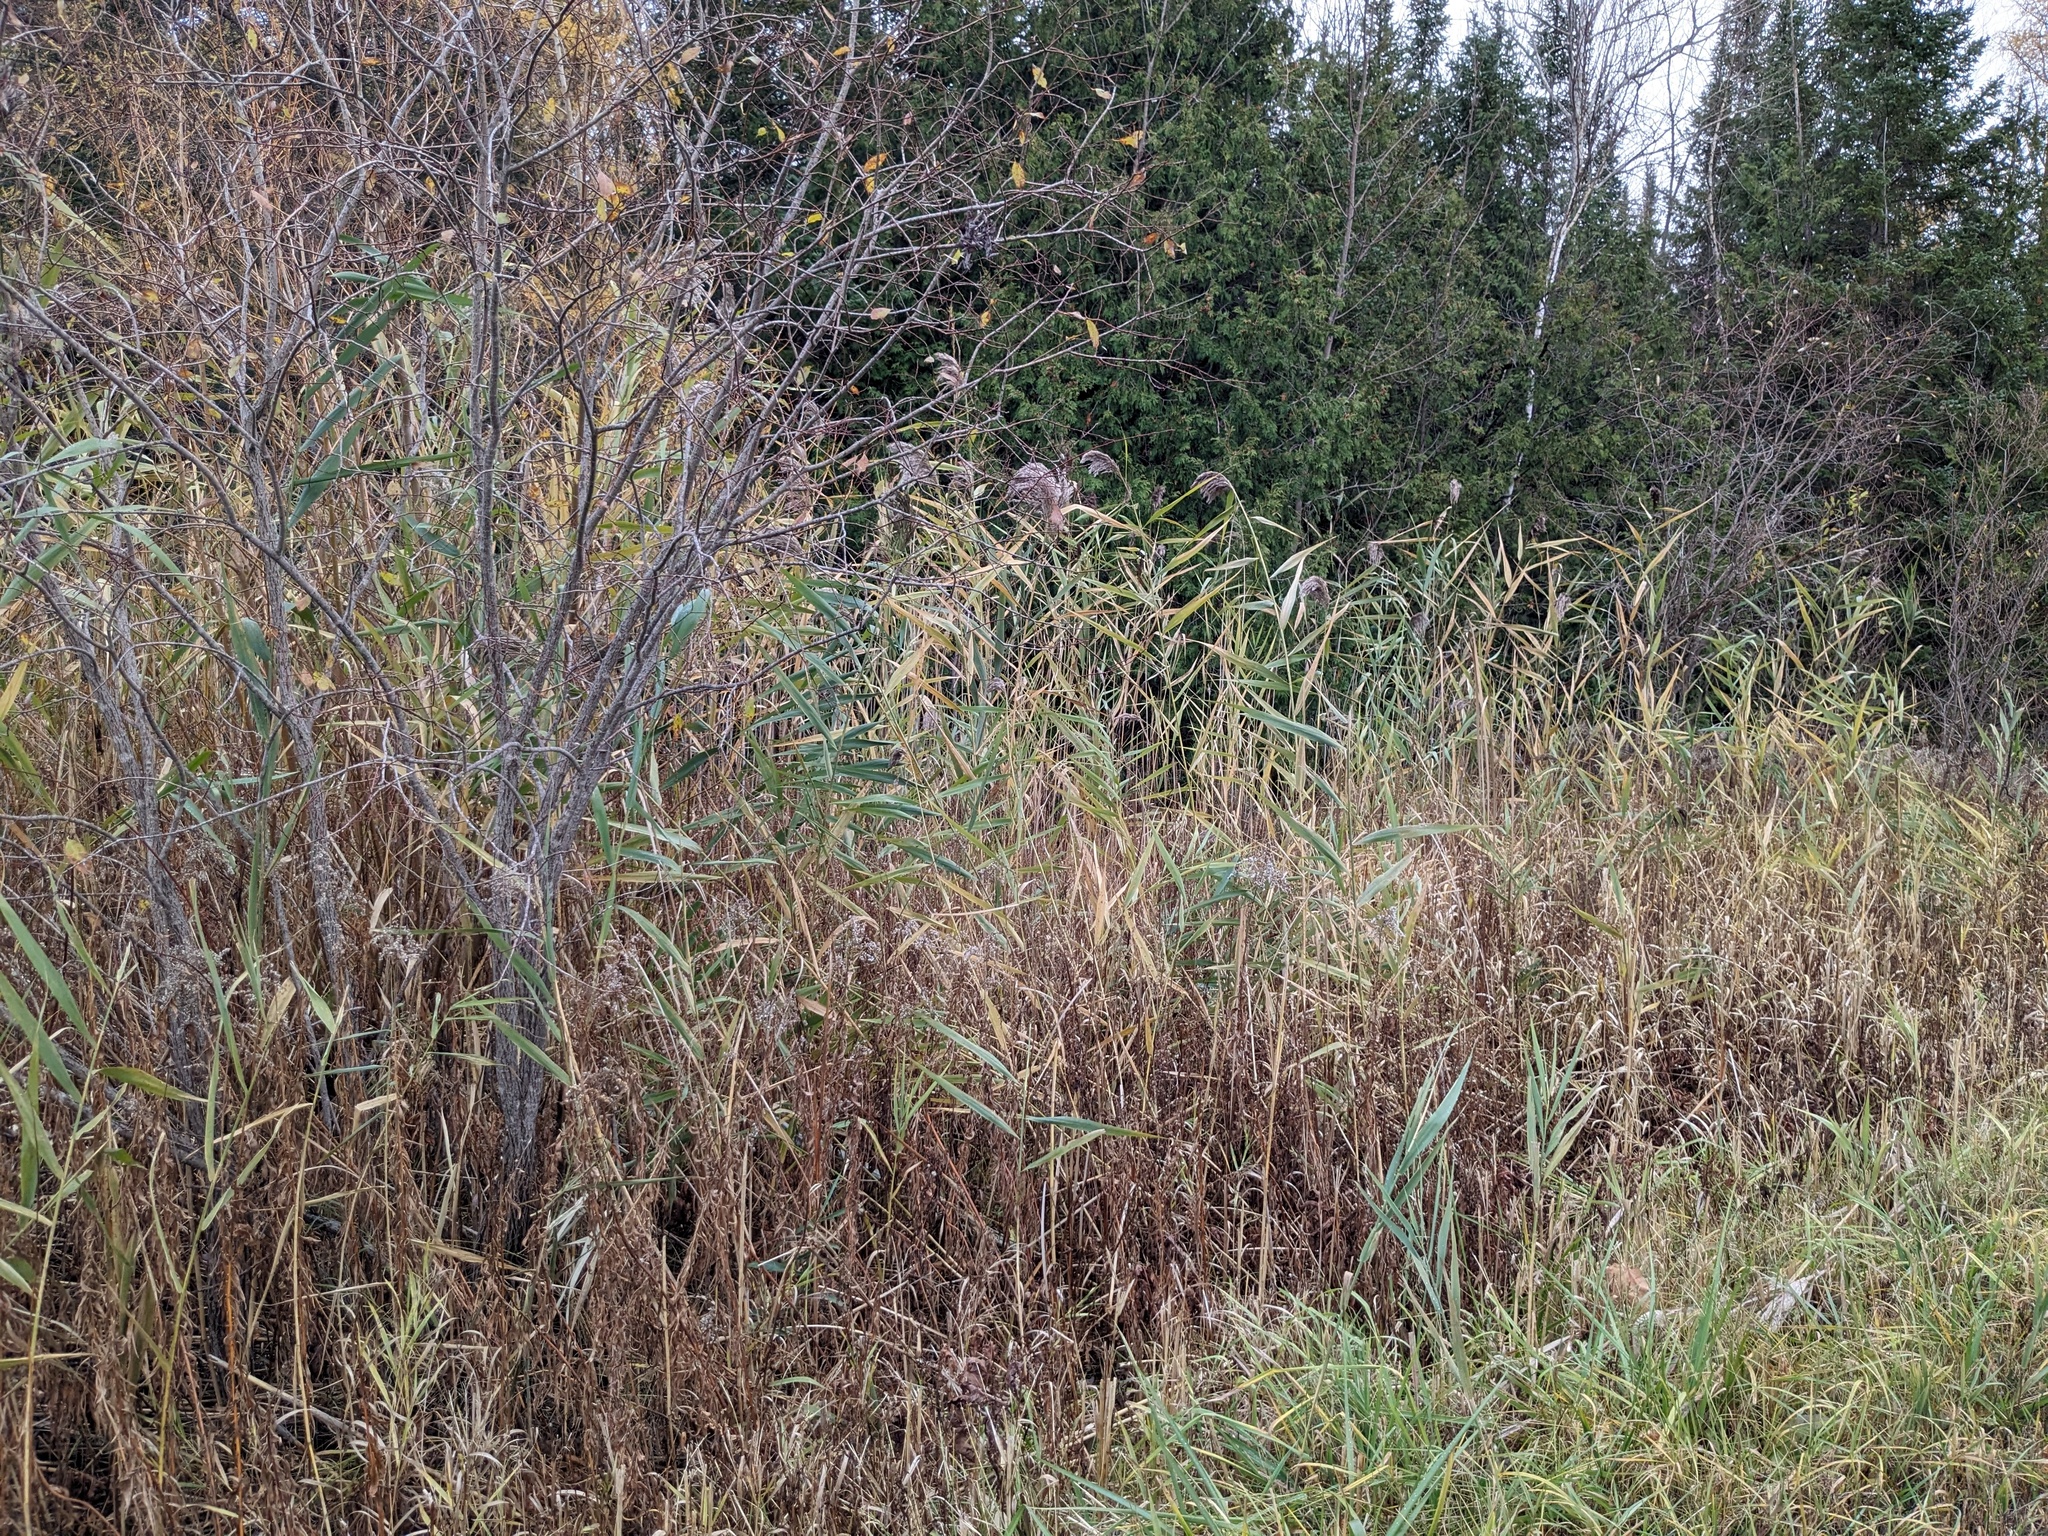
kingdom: Plantae
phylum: Tracheophyta
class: Liliopsida
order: Poales
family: Poaceae
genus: Phragmites
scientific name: Phragmites australis
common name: Common reed
